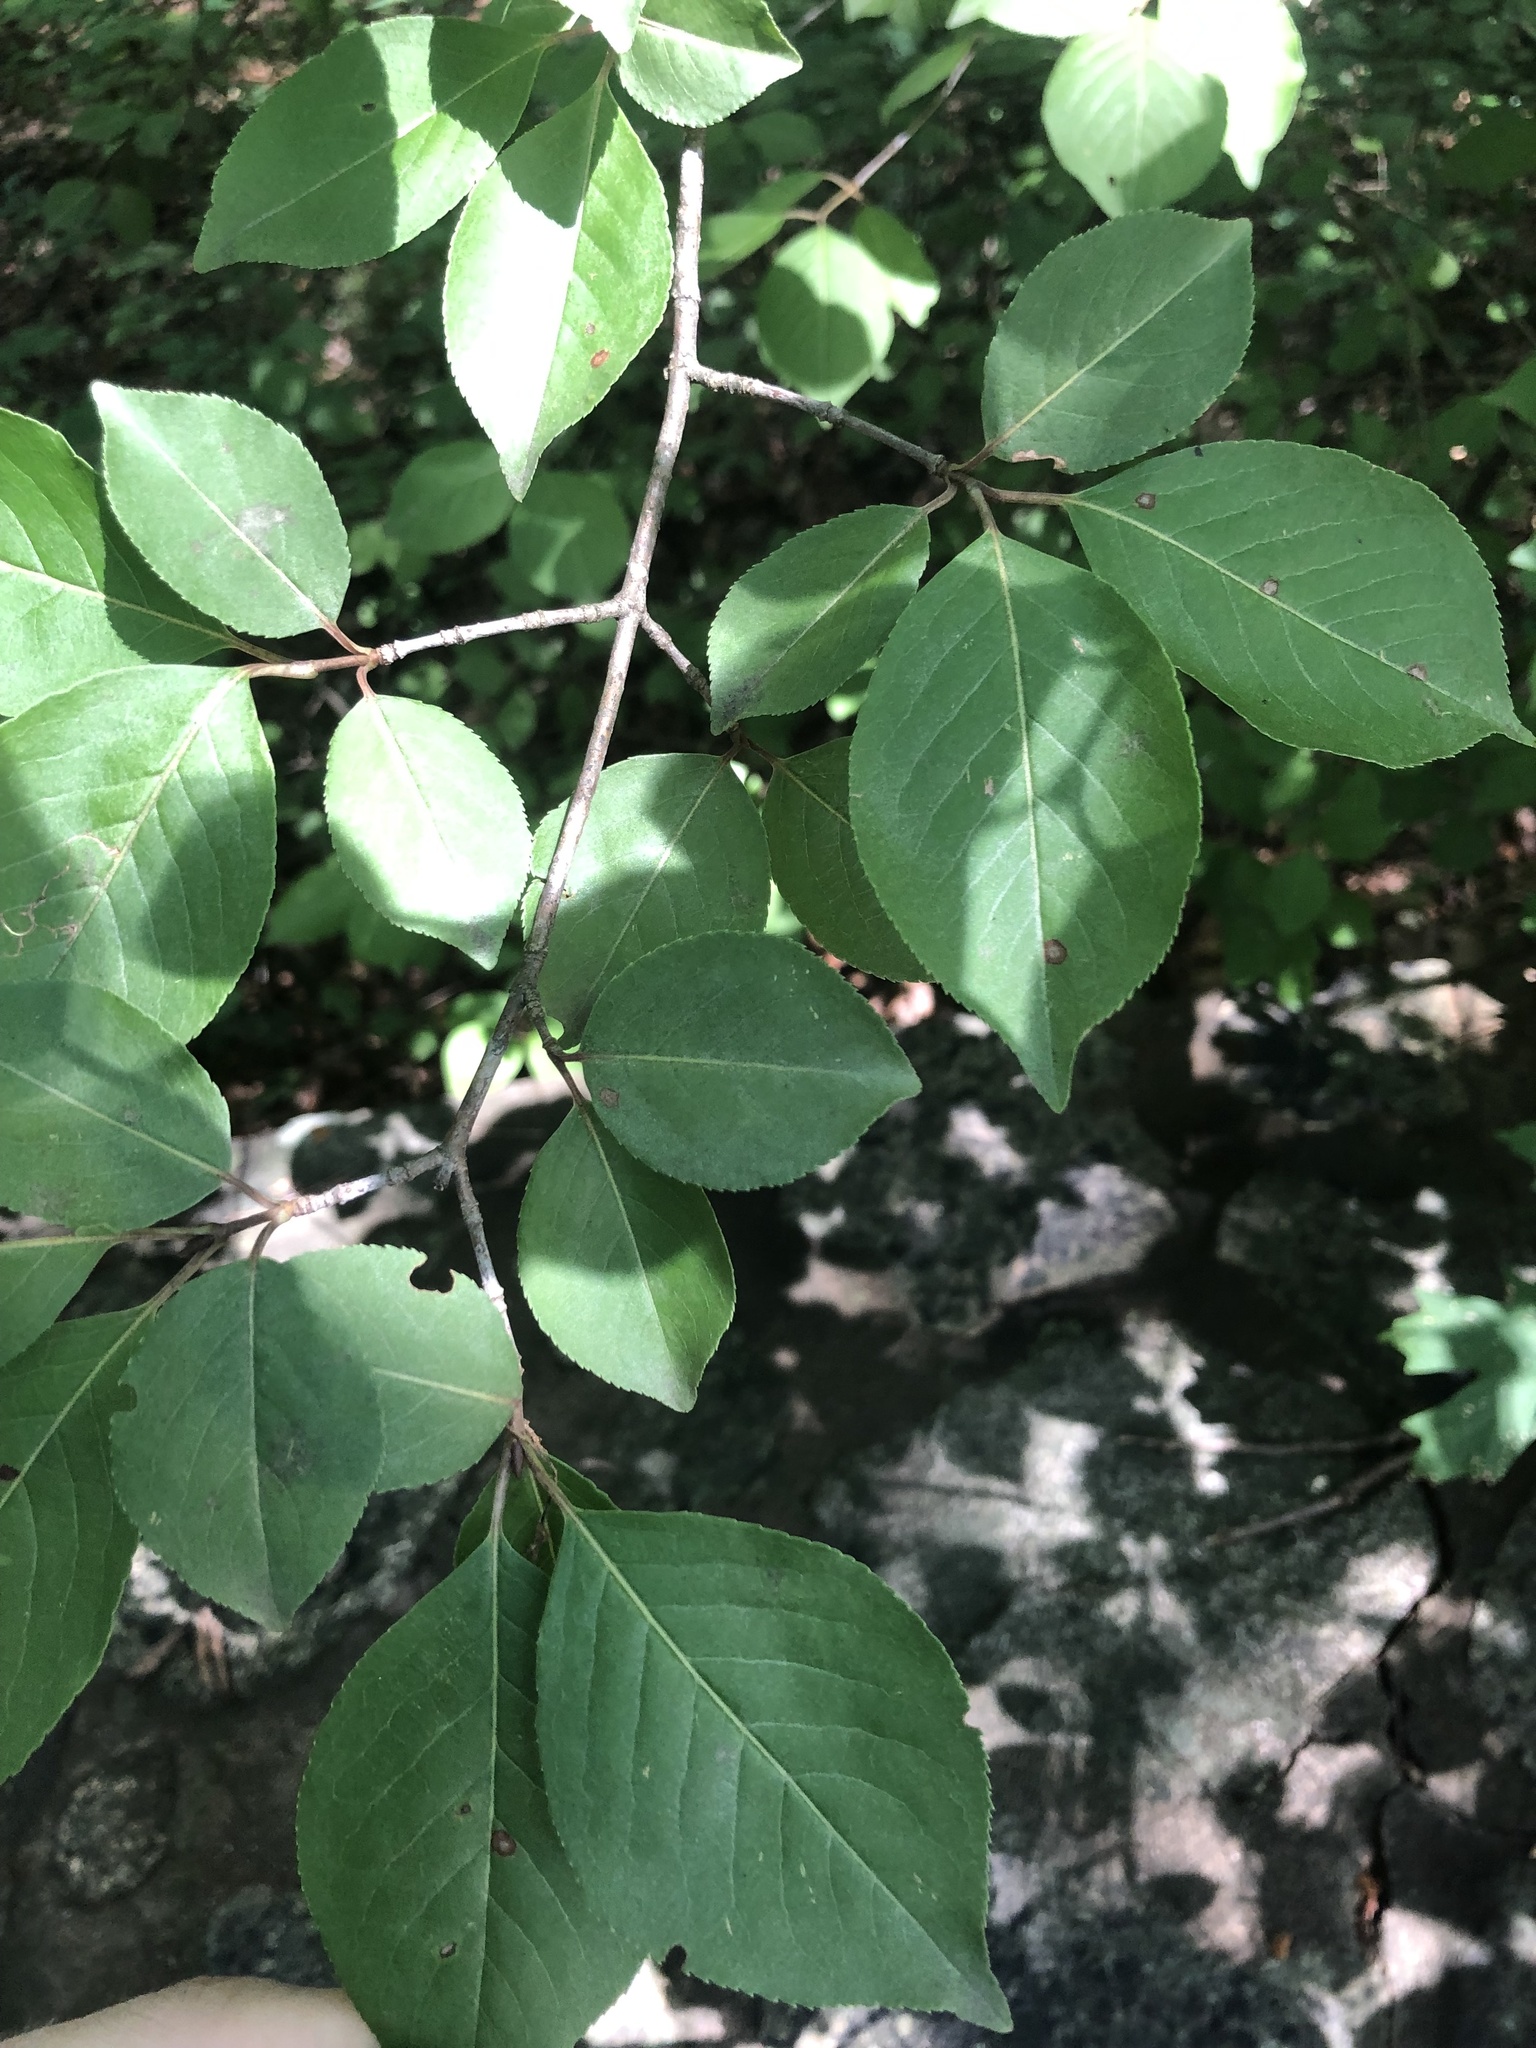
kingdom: Plantae
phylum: Tracheophyta
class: Magnoliopsida
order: Dipsacales
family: Viburnaceae
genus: Viburnum
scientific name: Viburnum prunifolium
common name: Black haw
